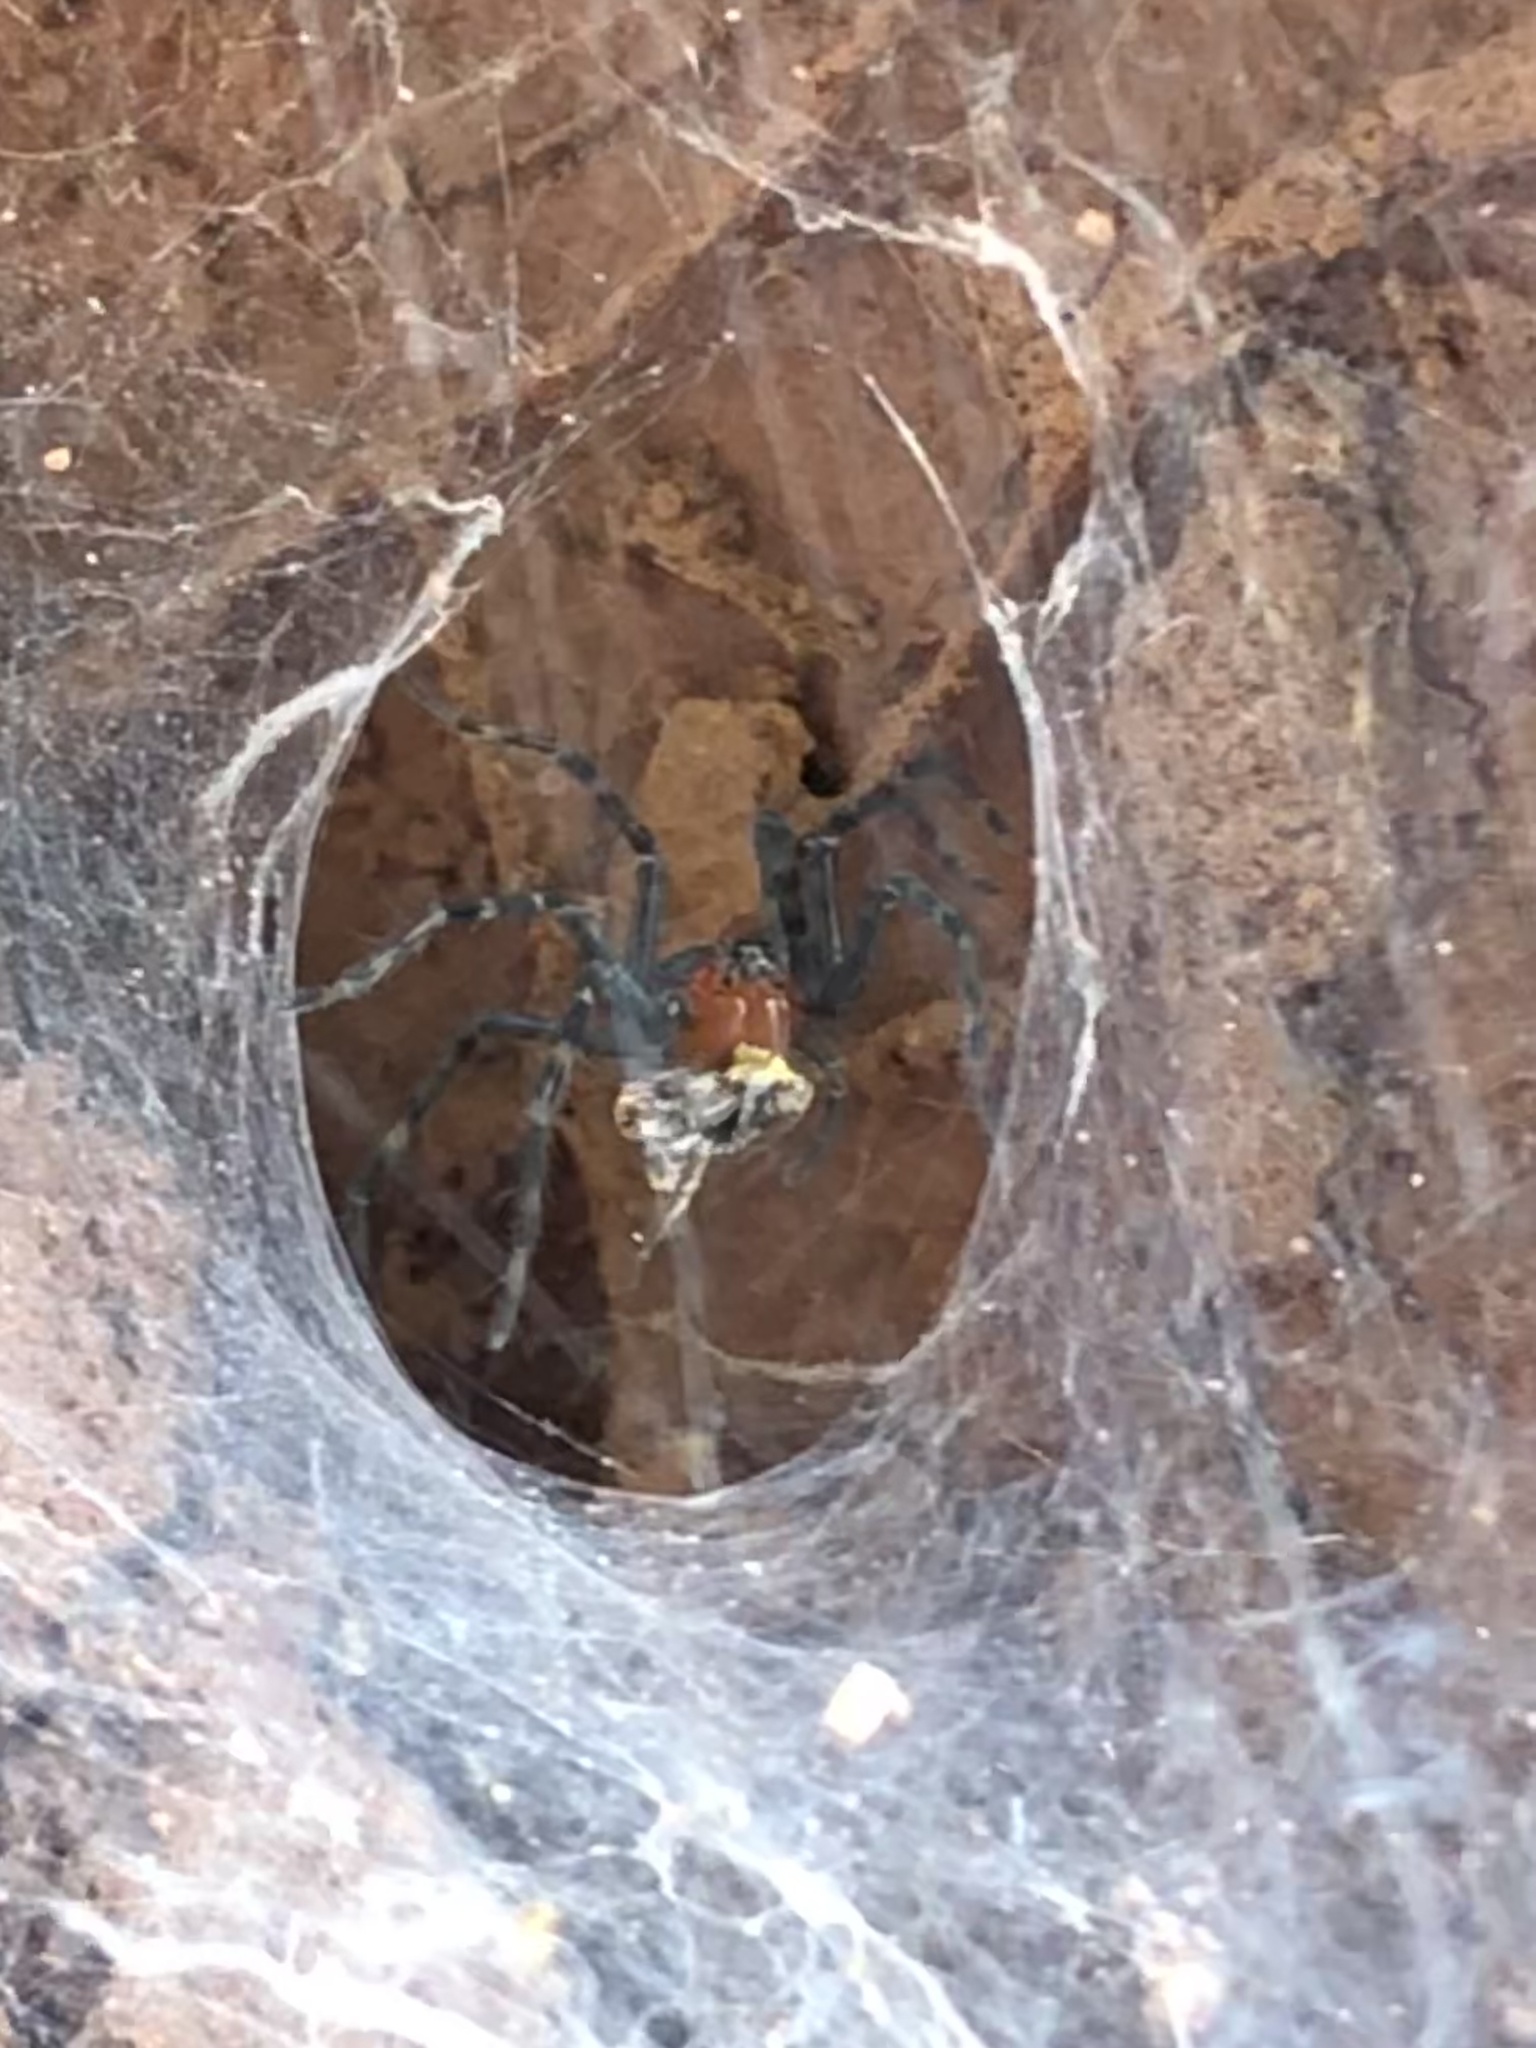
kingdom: Animalia
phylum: Arthropoda
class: Arachnida
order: Araneae
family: Lycosidae
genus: Aglaoctenus
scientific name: Aglaoctenus castaneus
